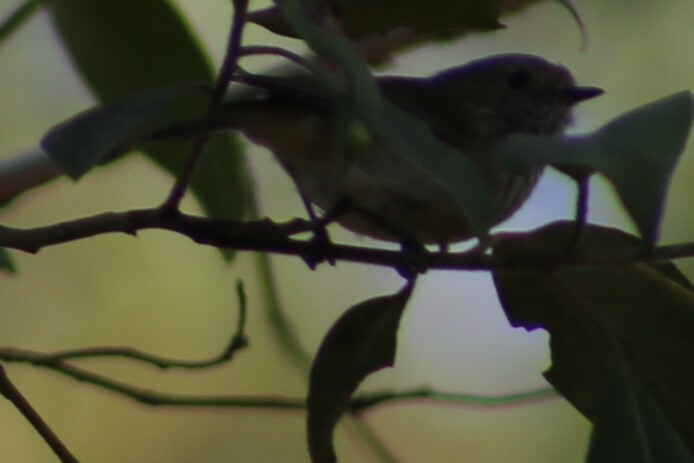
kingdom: Animalia
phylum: Chordata
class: Aves
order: Passeriformes
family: Acanthizidae
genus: Acanthiza
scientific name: Acanthiza pusilla
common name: Brown thornbill
